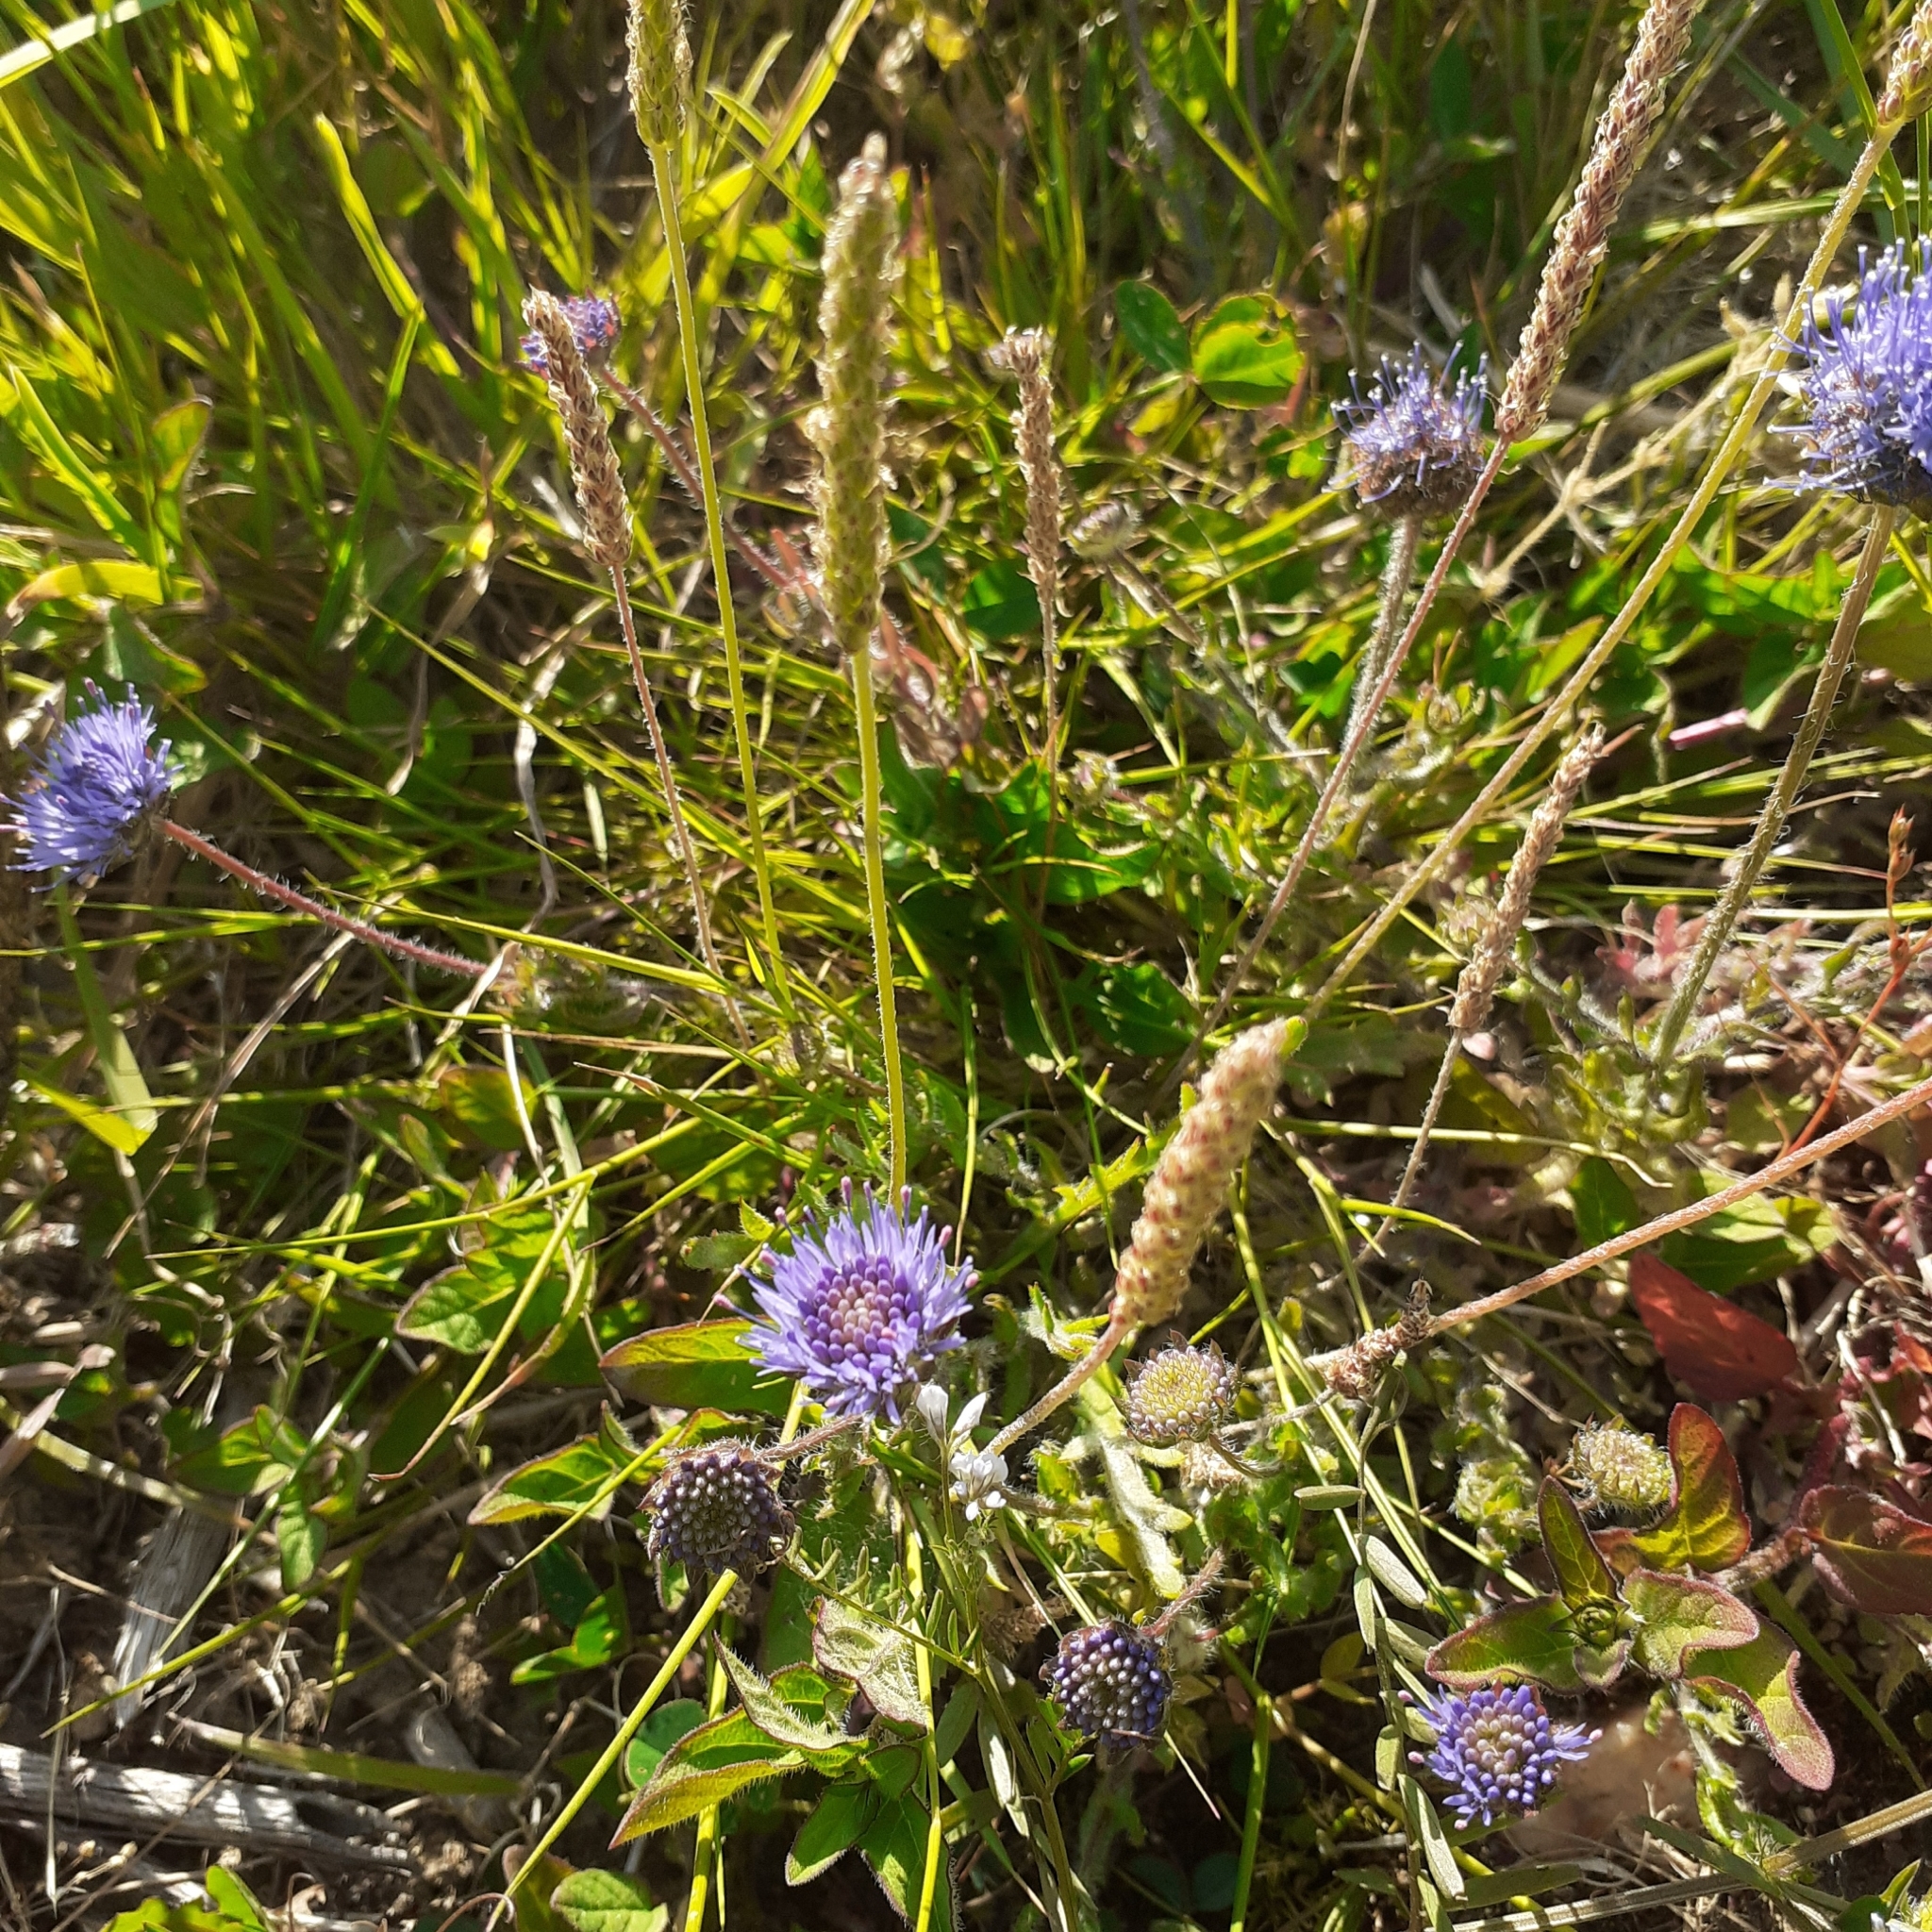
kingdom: Plantae
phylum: Tracheophyta
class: Magnoliopsida
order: Asterales
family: Campanulaceae
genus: Jasione
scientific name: Jasione montana
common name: Sheep's-bit
